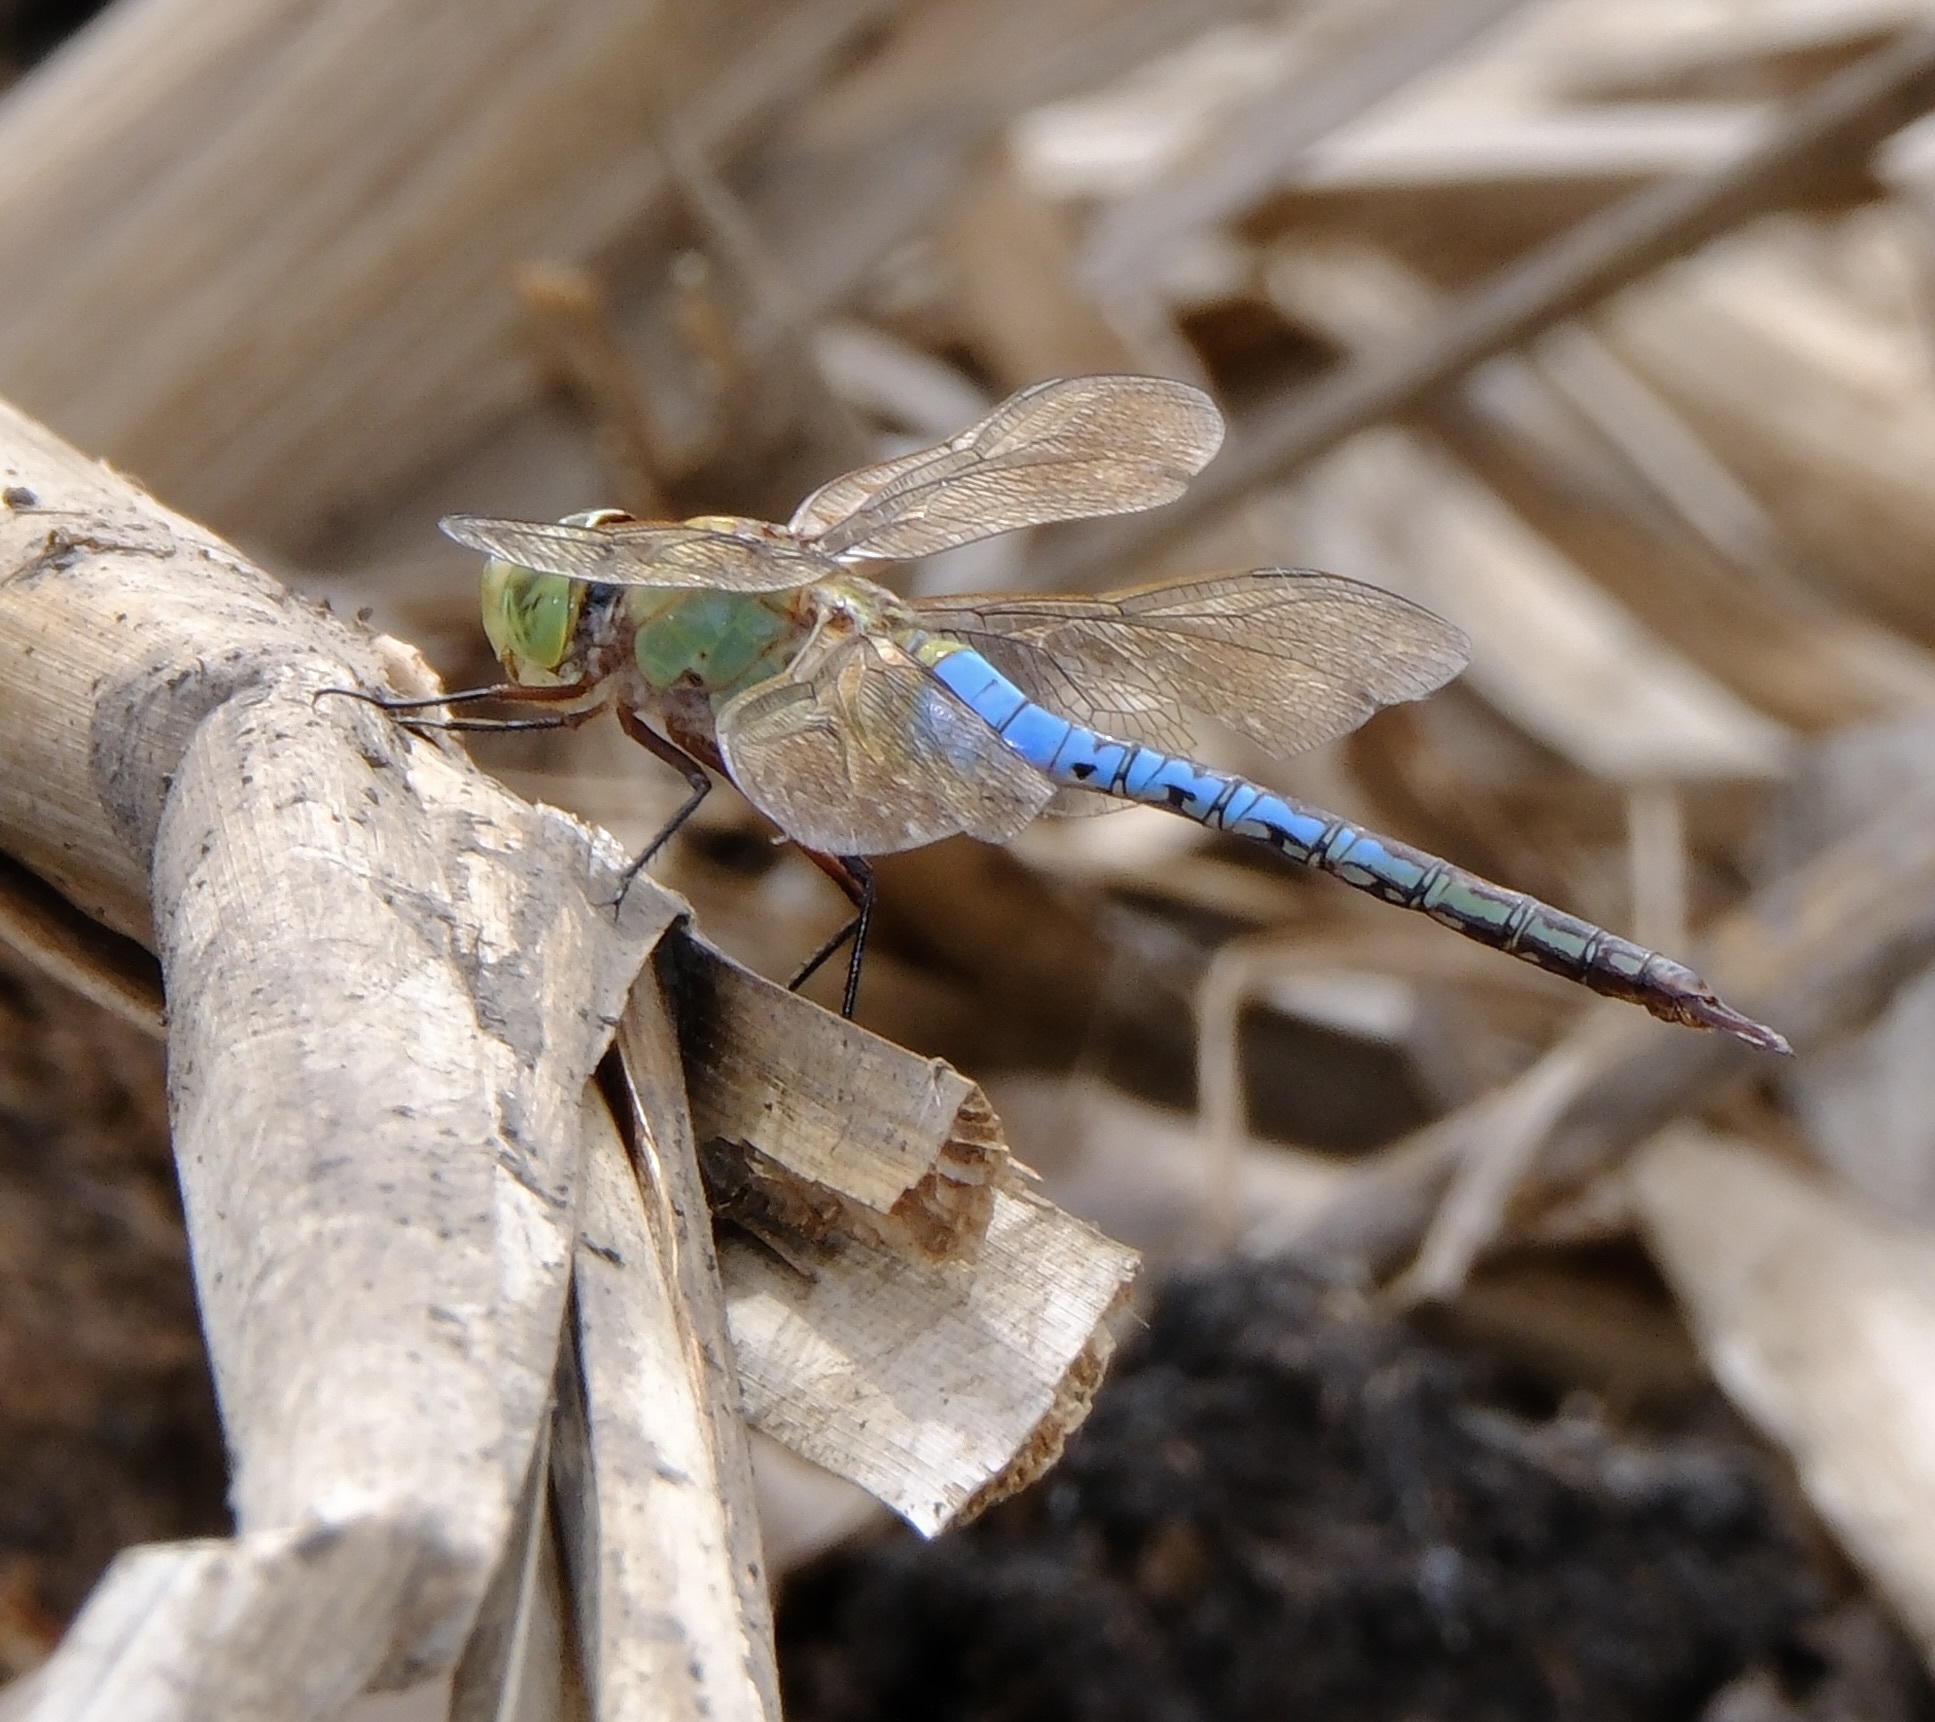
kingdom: Animalia
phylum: Arthropoda
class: Insecta
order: Odonata
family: Aeshnidae
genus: Anax
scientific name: Anax junius
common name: Common green darner
